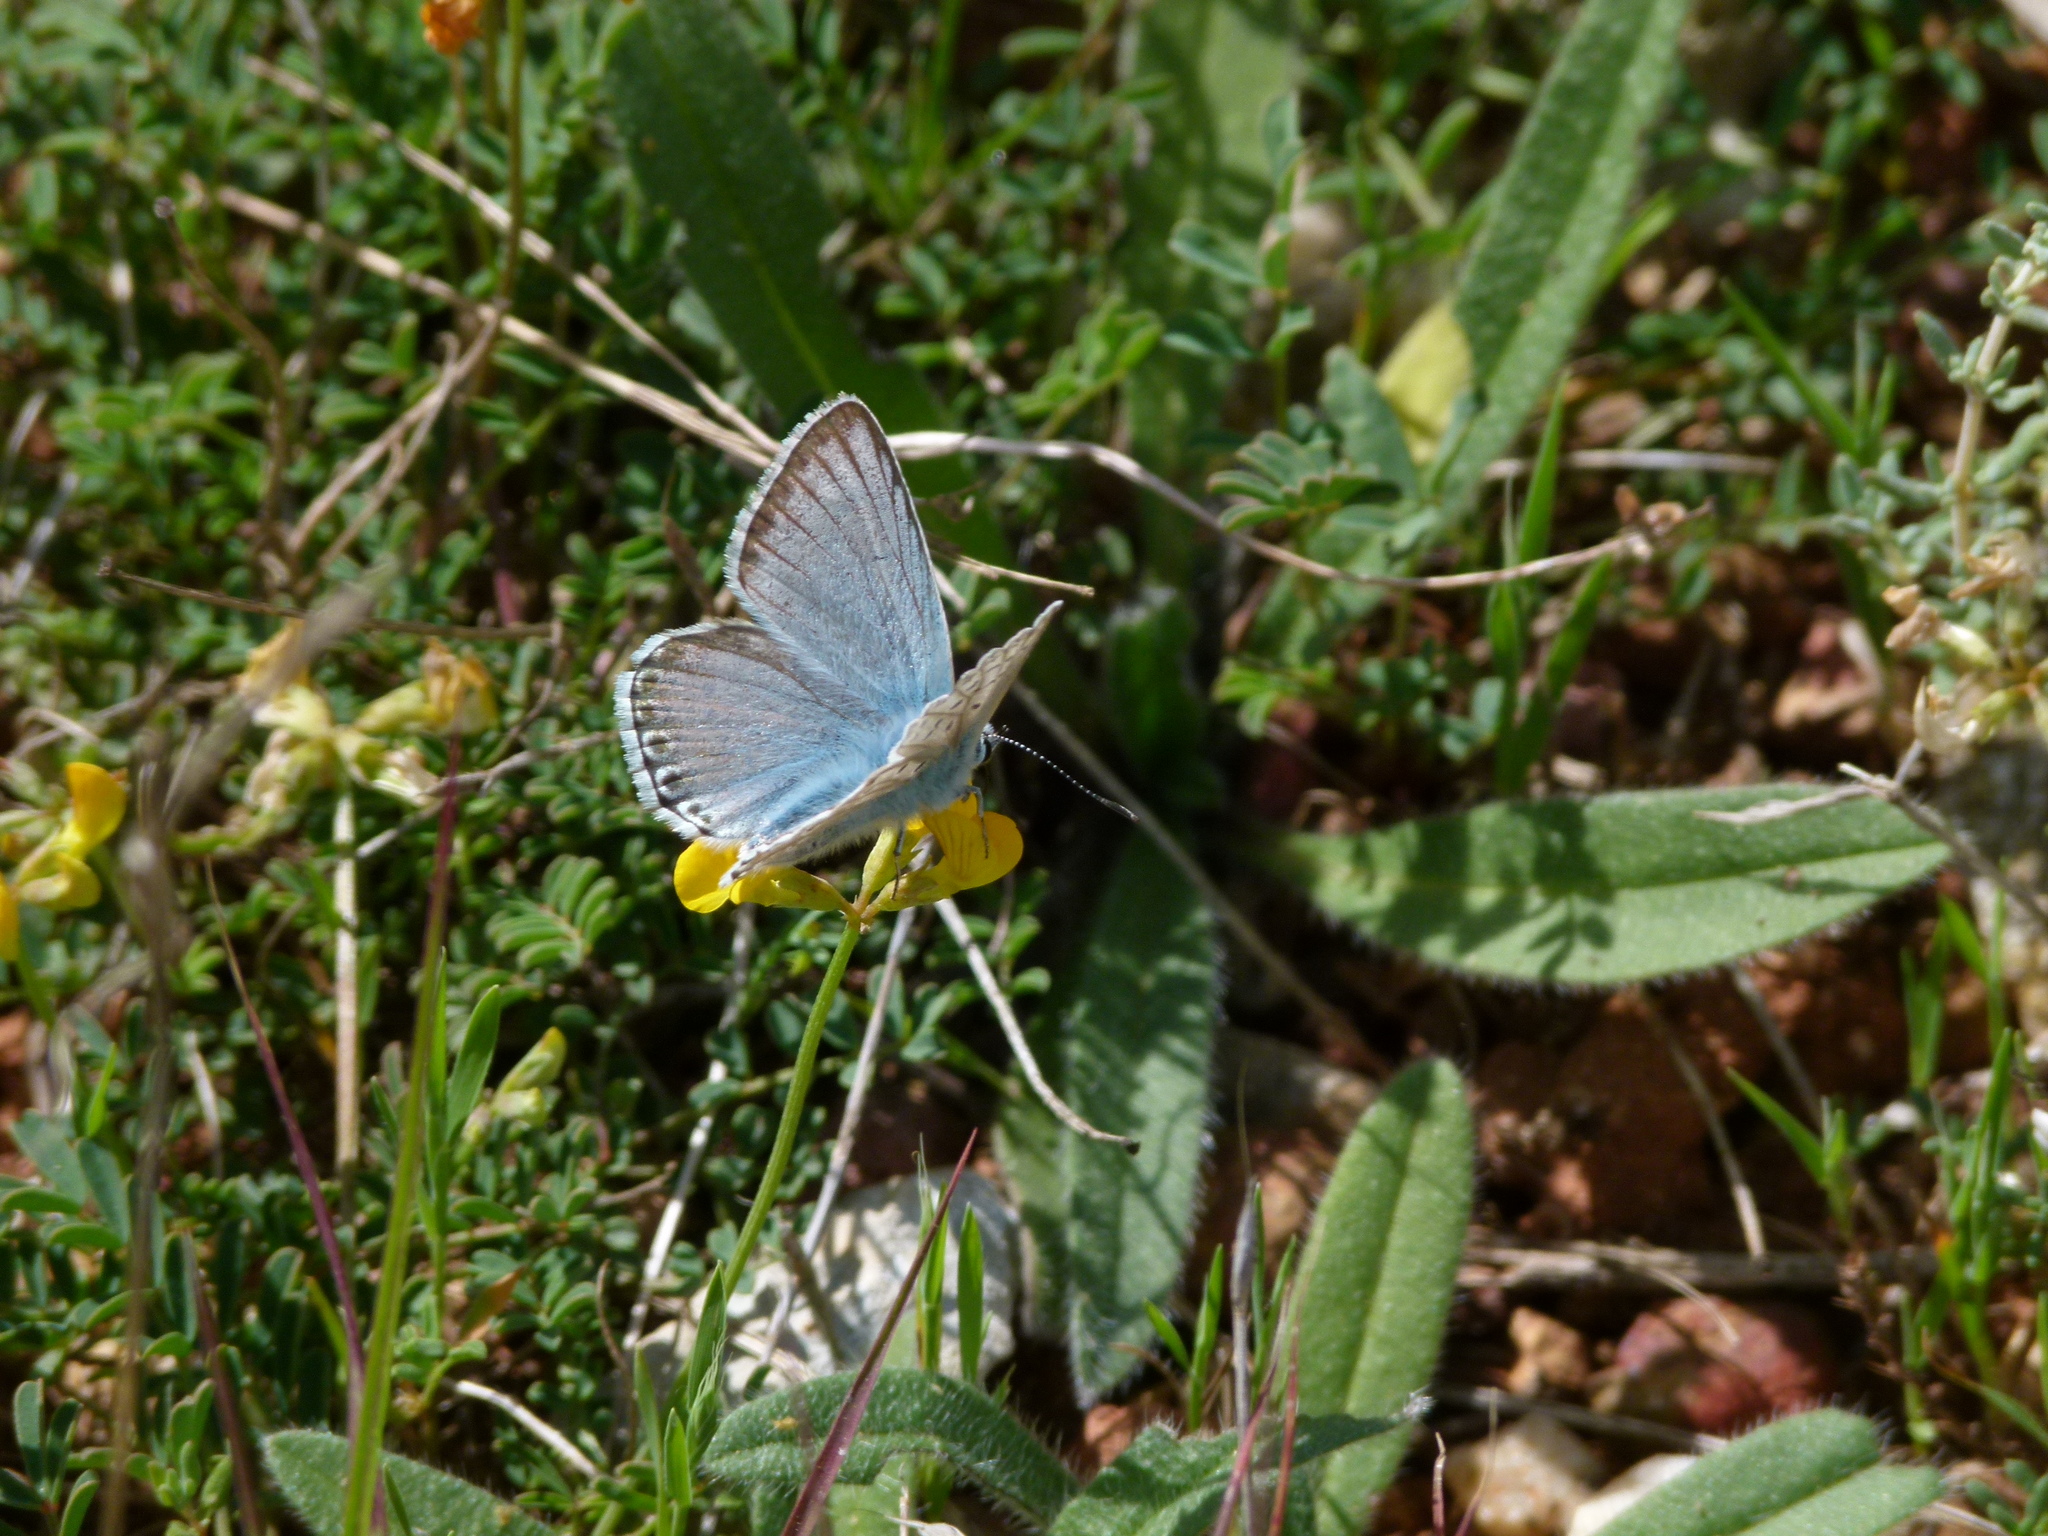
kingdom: Animalia
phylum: Arthropoda
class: Insecta
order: Lepidoptera
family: Lycaenidae
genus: Lysandra
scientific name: Lysandra hispana
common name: Provence chalkhill blue
